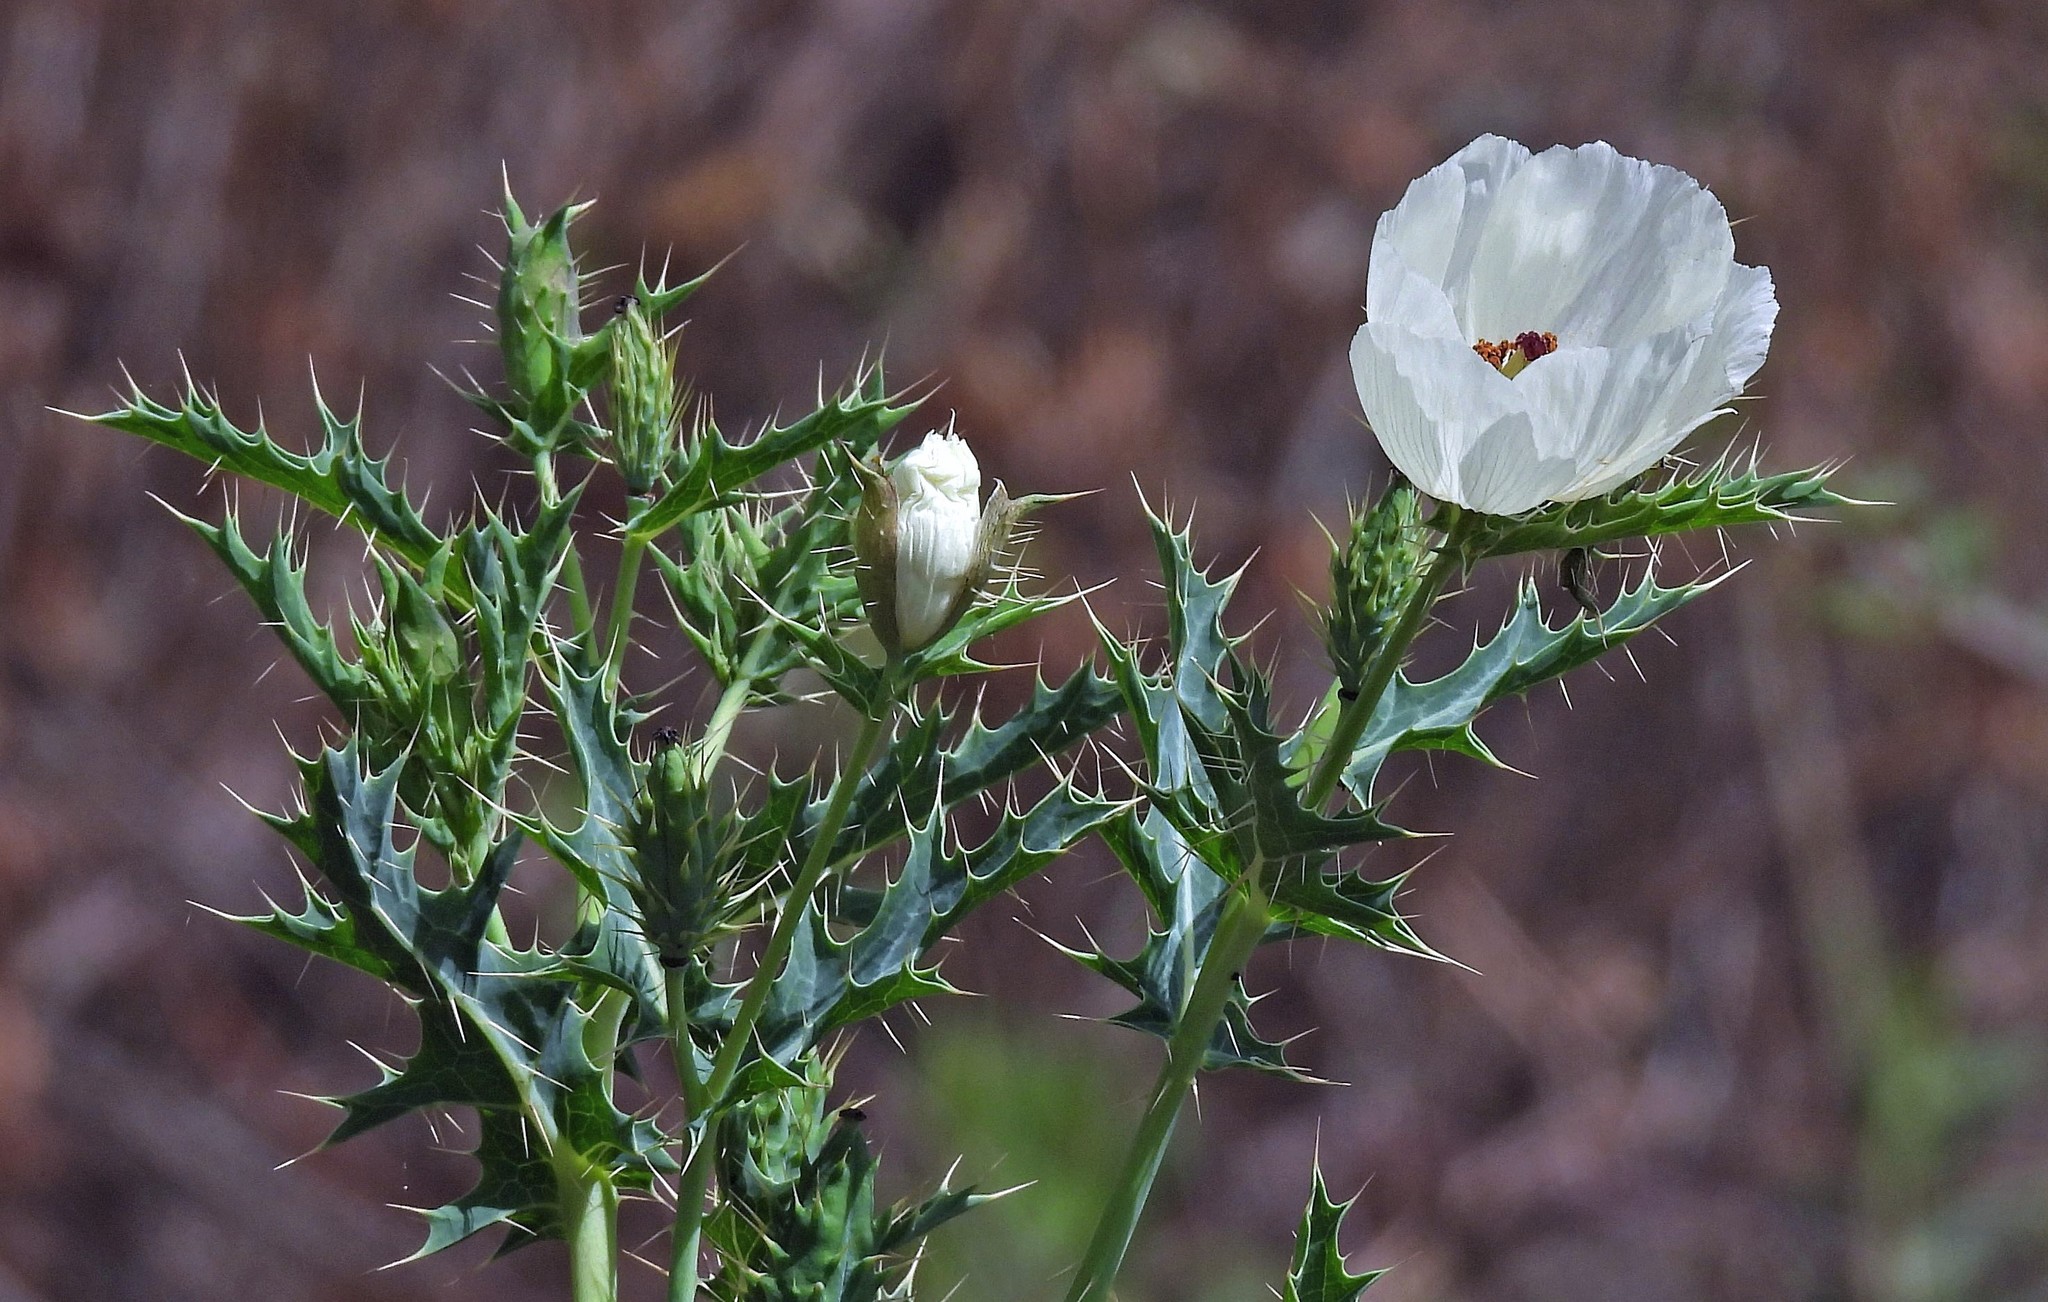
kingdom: Plantae
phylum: Tracheophyta
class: Magnoliopsida
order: Ranunculales
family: Papaveraceae
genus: Argemone
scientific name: Argemone subfusiformis
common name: American-poppy
